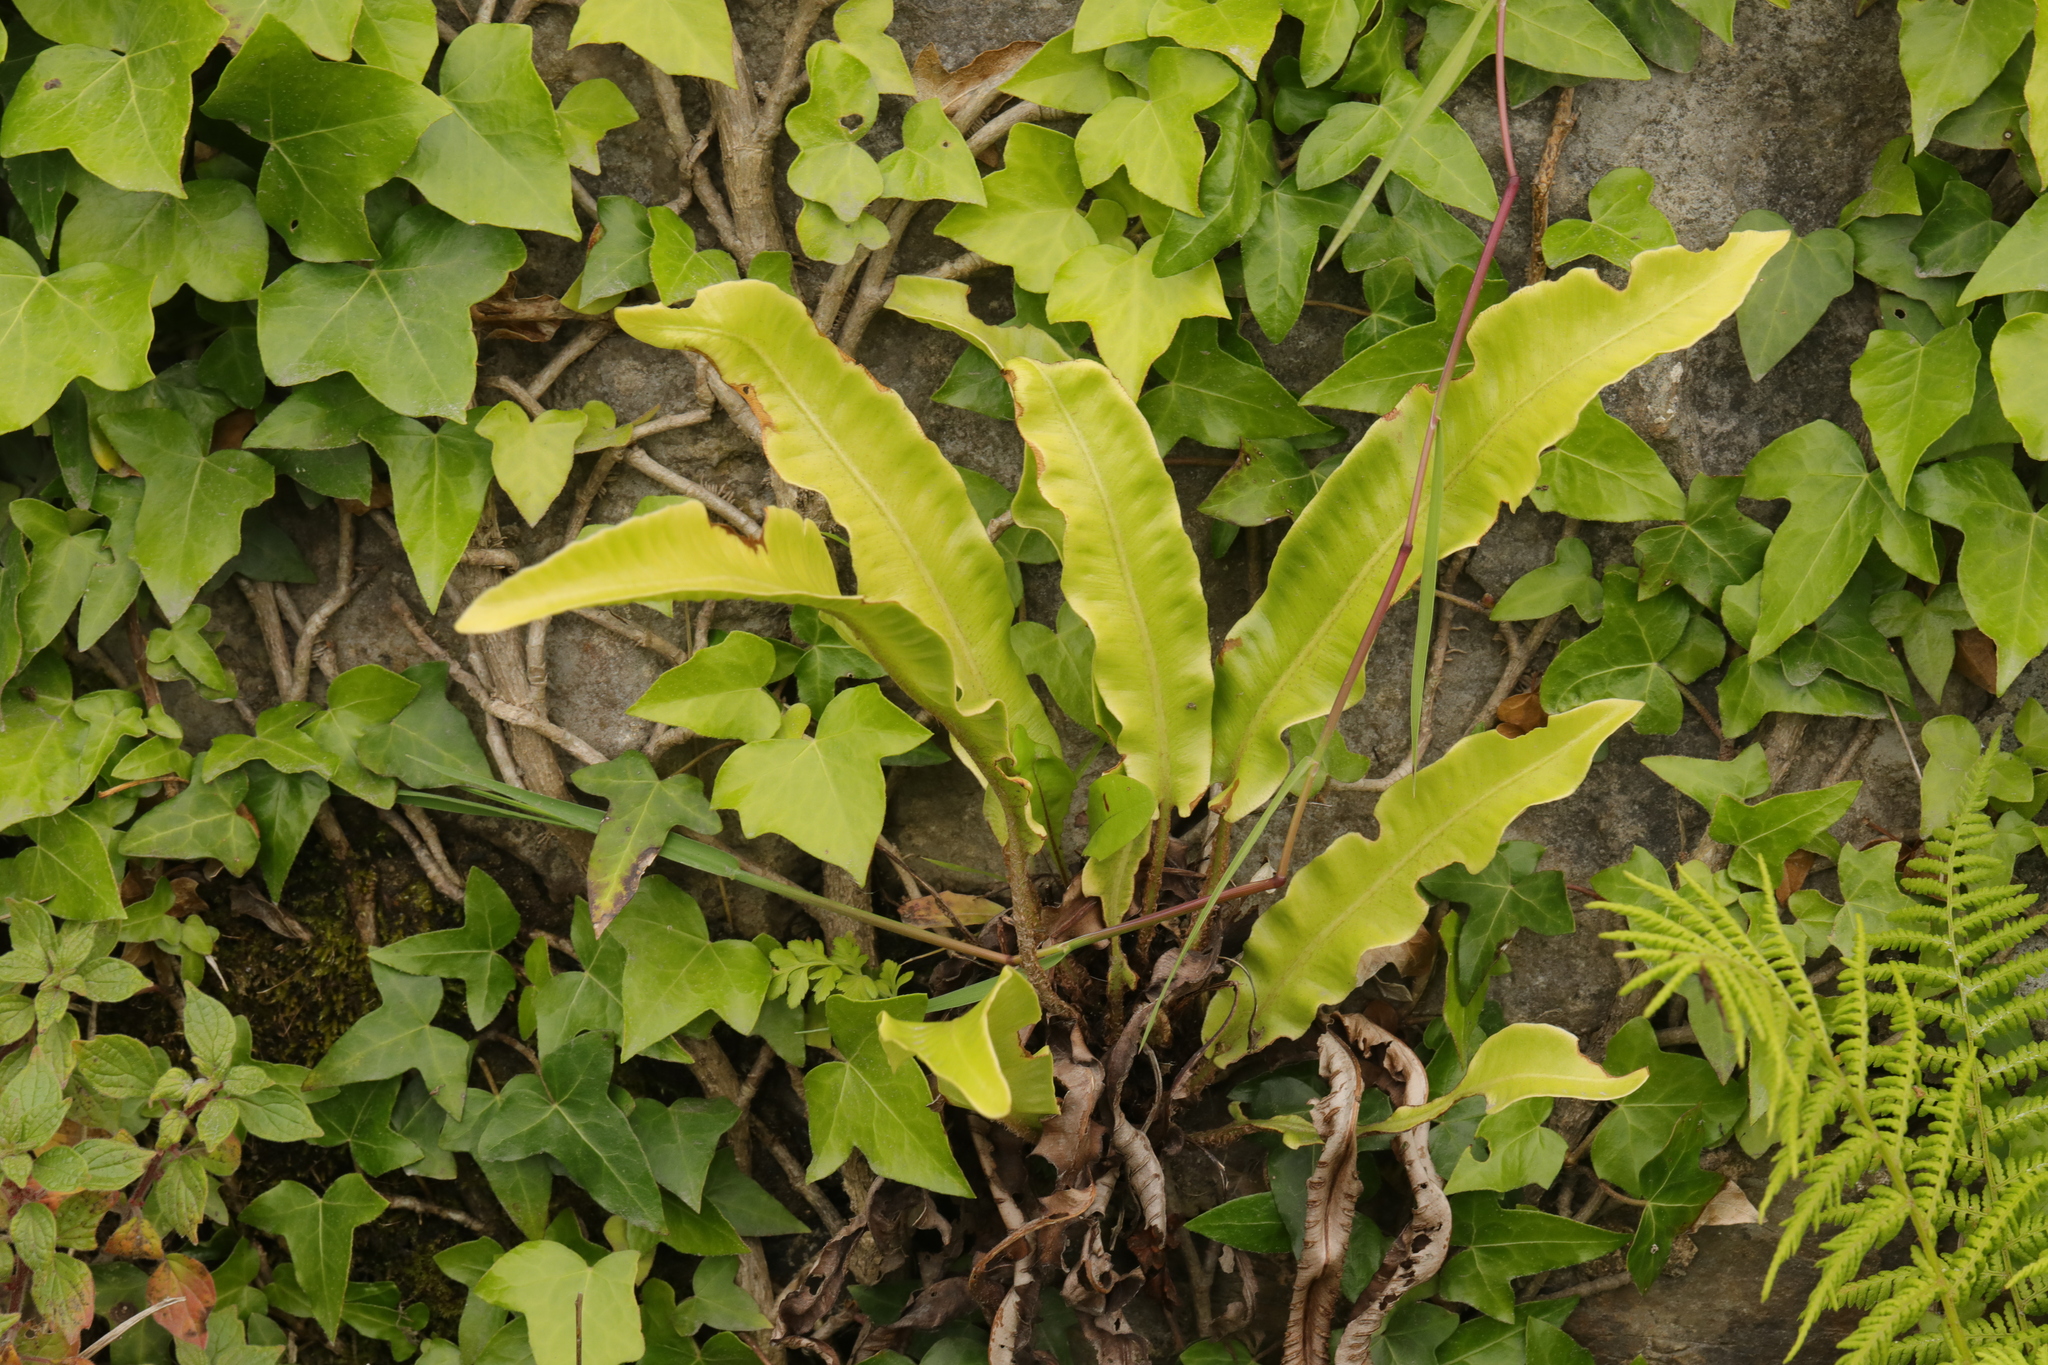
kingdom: Plantae
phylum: Tracheophyta
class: Polypodiopsida
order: Polypodiales
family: Aspleniaceae
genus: Asplenium
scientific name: Asplenium scolopendrium
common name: Hart's-tongue fern
